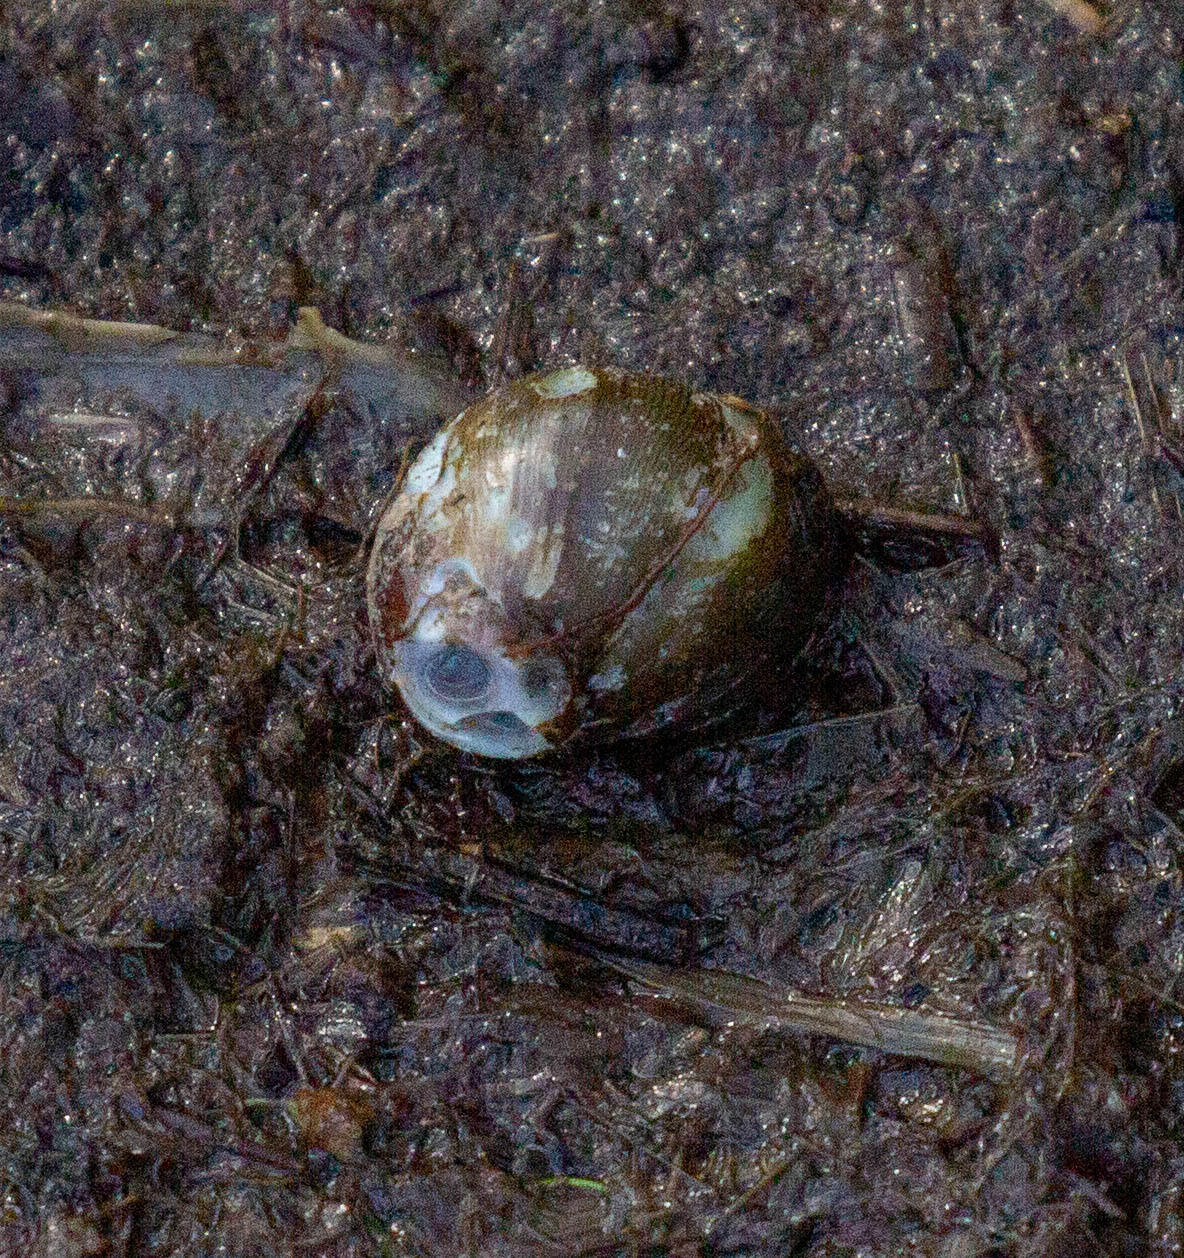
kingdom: Animalia
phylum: Mollusca
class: Gastropoda
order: Cycloneritida
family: Neritidae
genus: Vitta
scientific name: Vitta usnea
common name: Olive nerite
